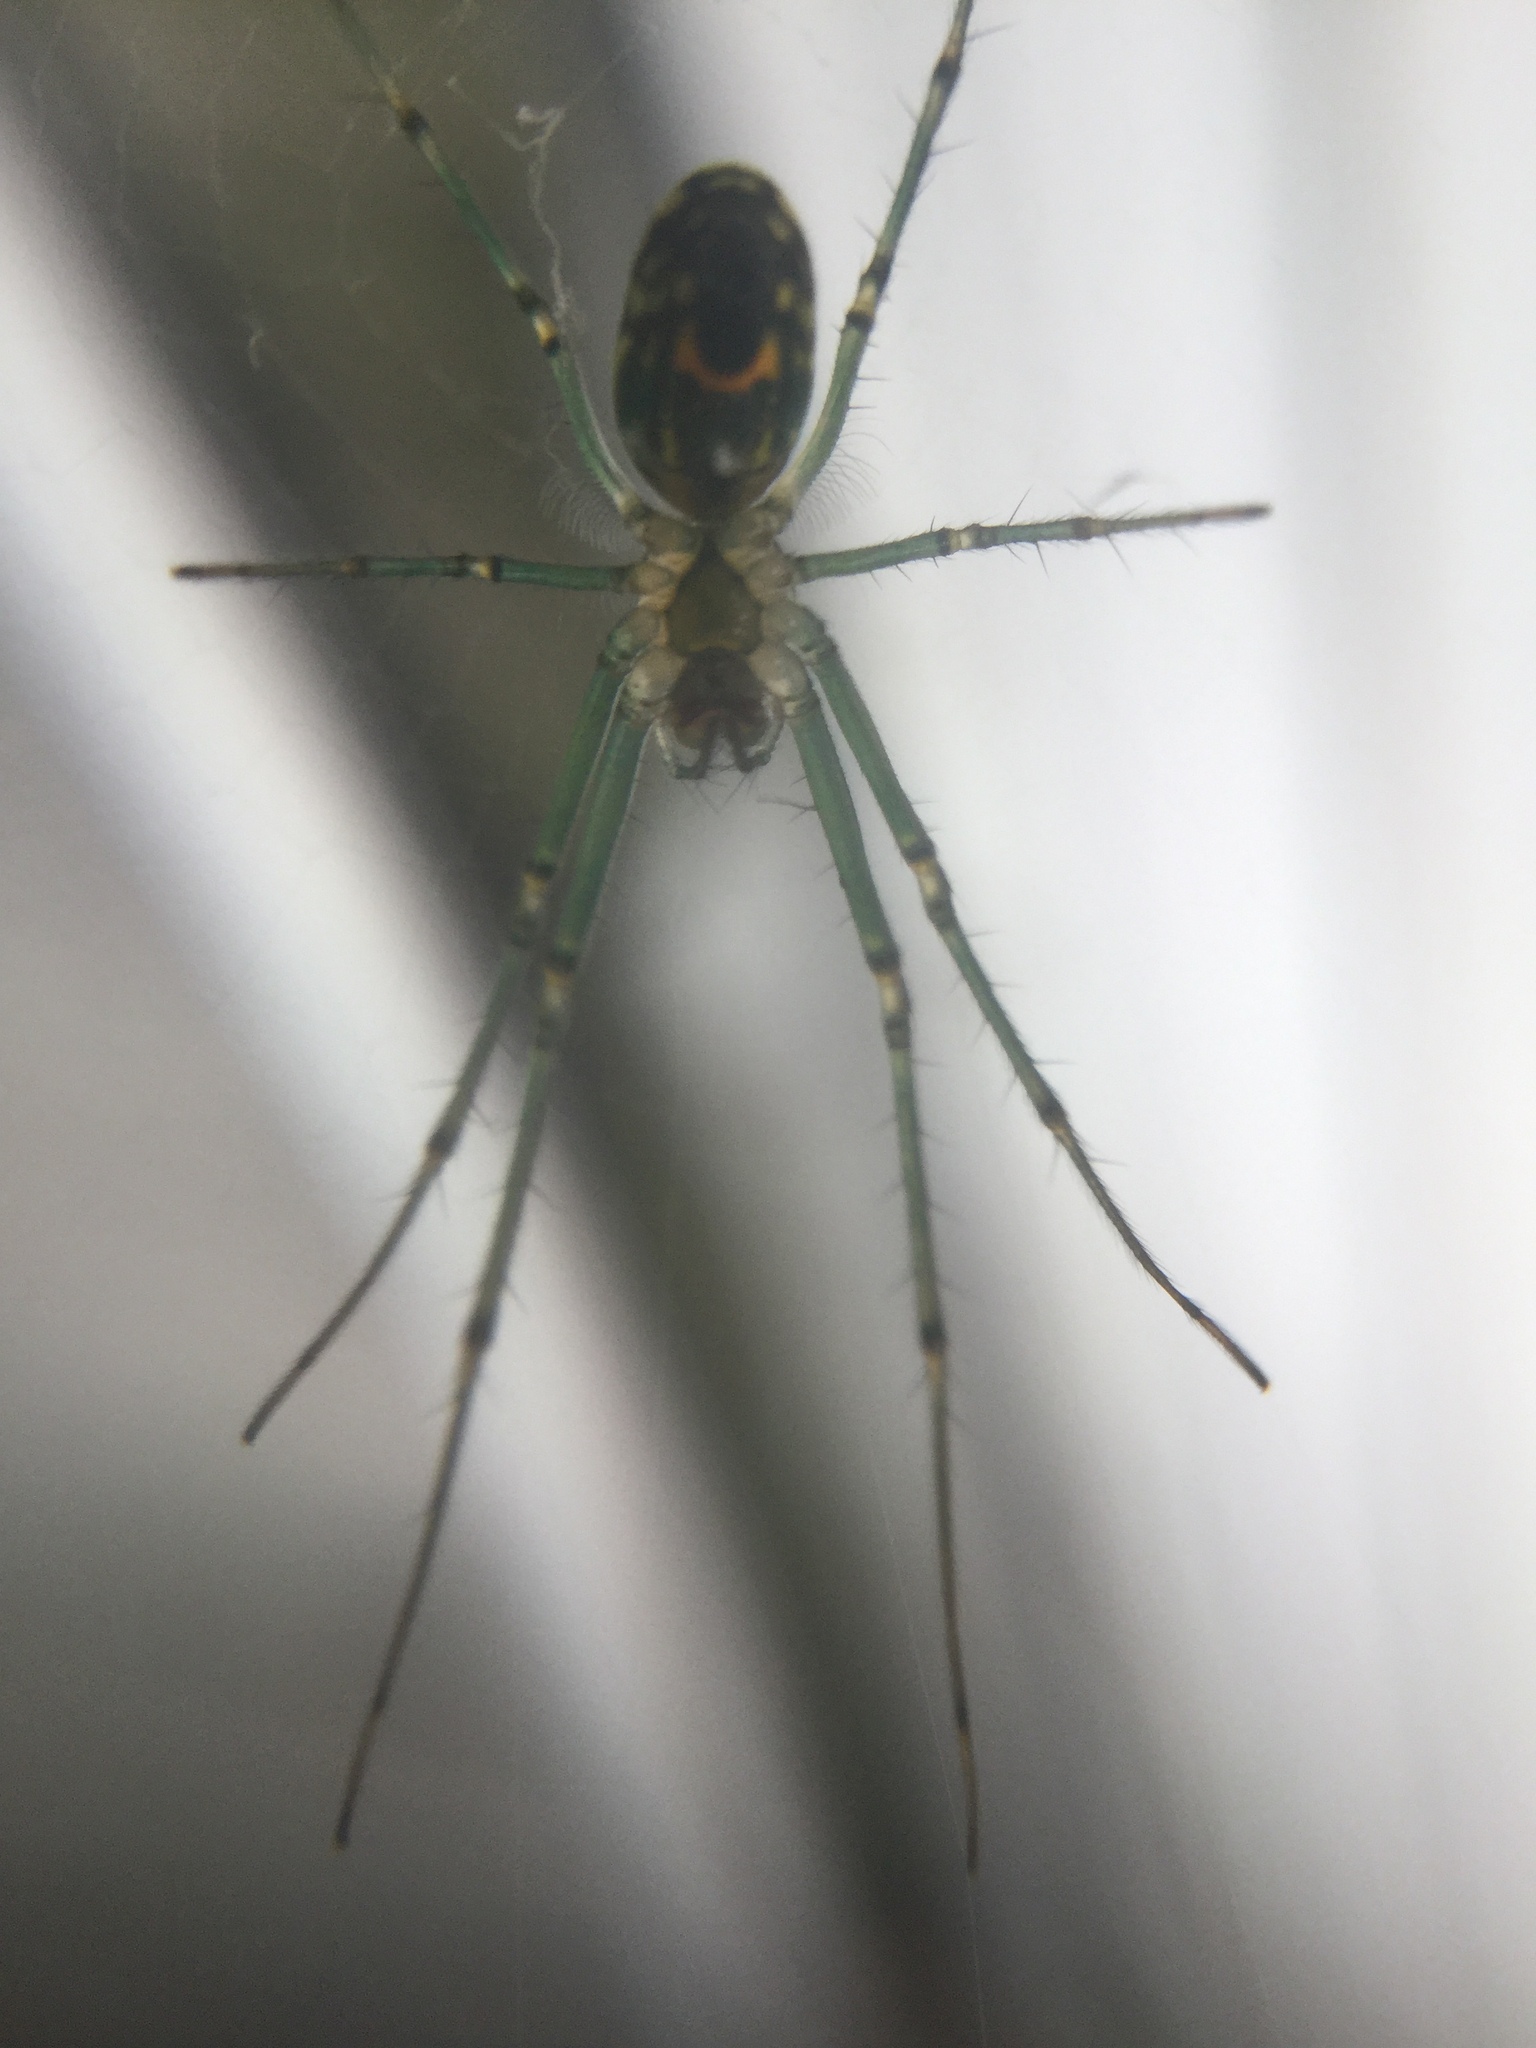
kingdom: Animalia
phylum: Arthropoda
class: Arachnida
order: Araneae
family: Tetragnathidae
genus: Leucauge
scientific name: Leucauge venusta
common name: Longjawed orb weavers
